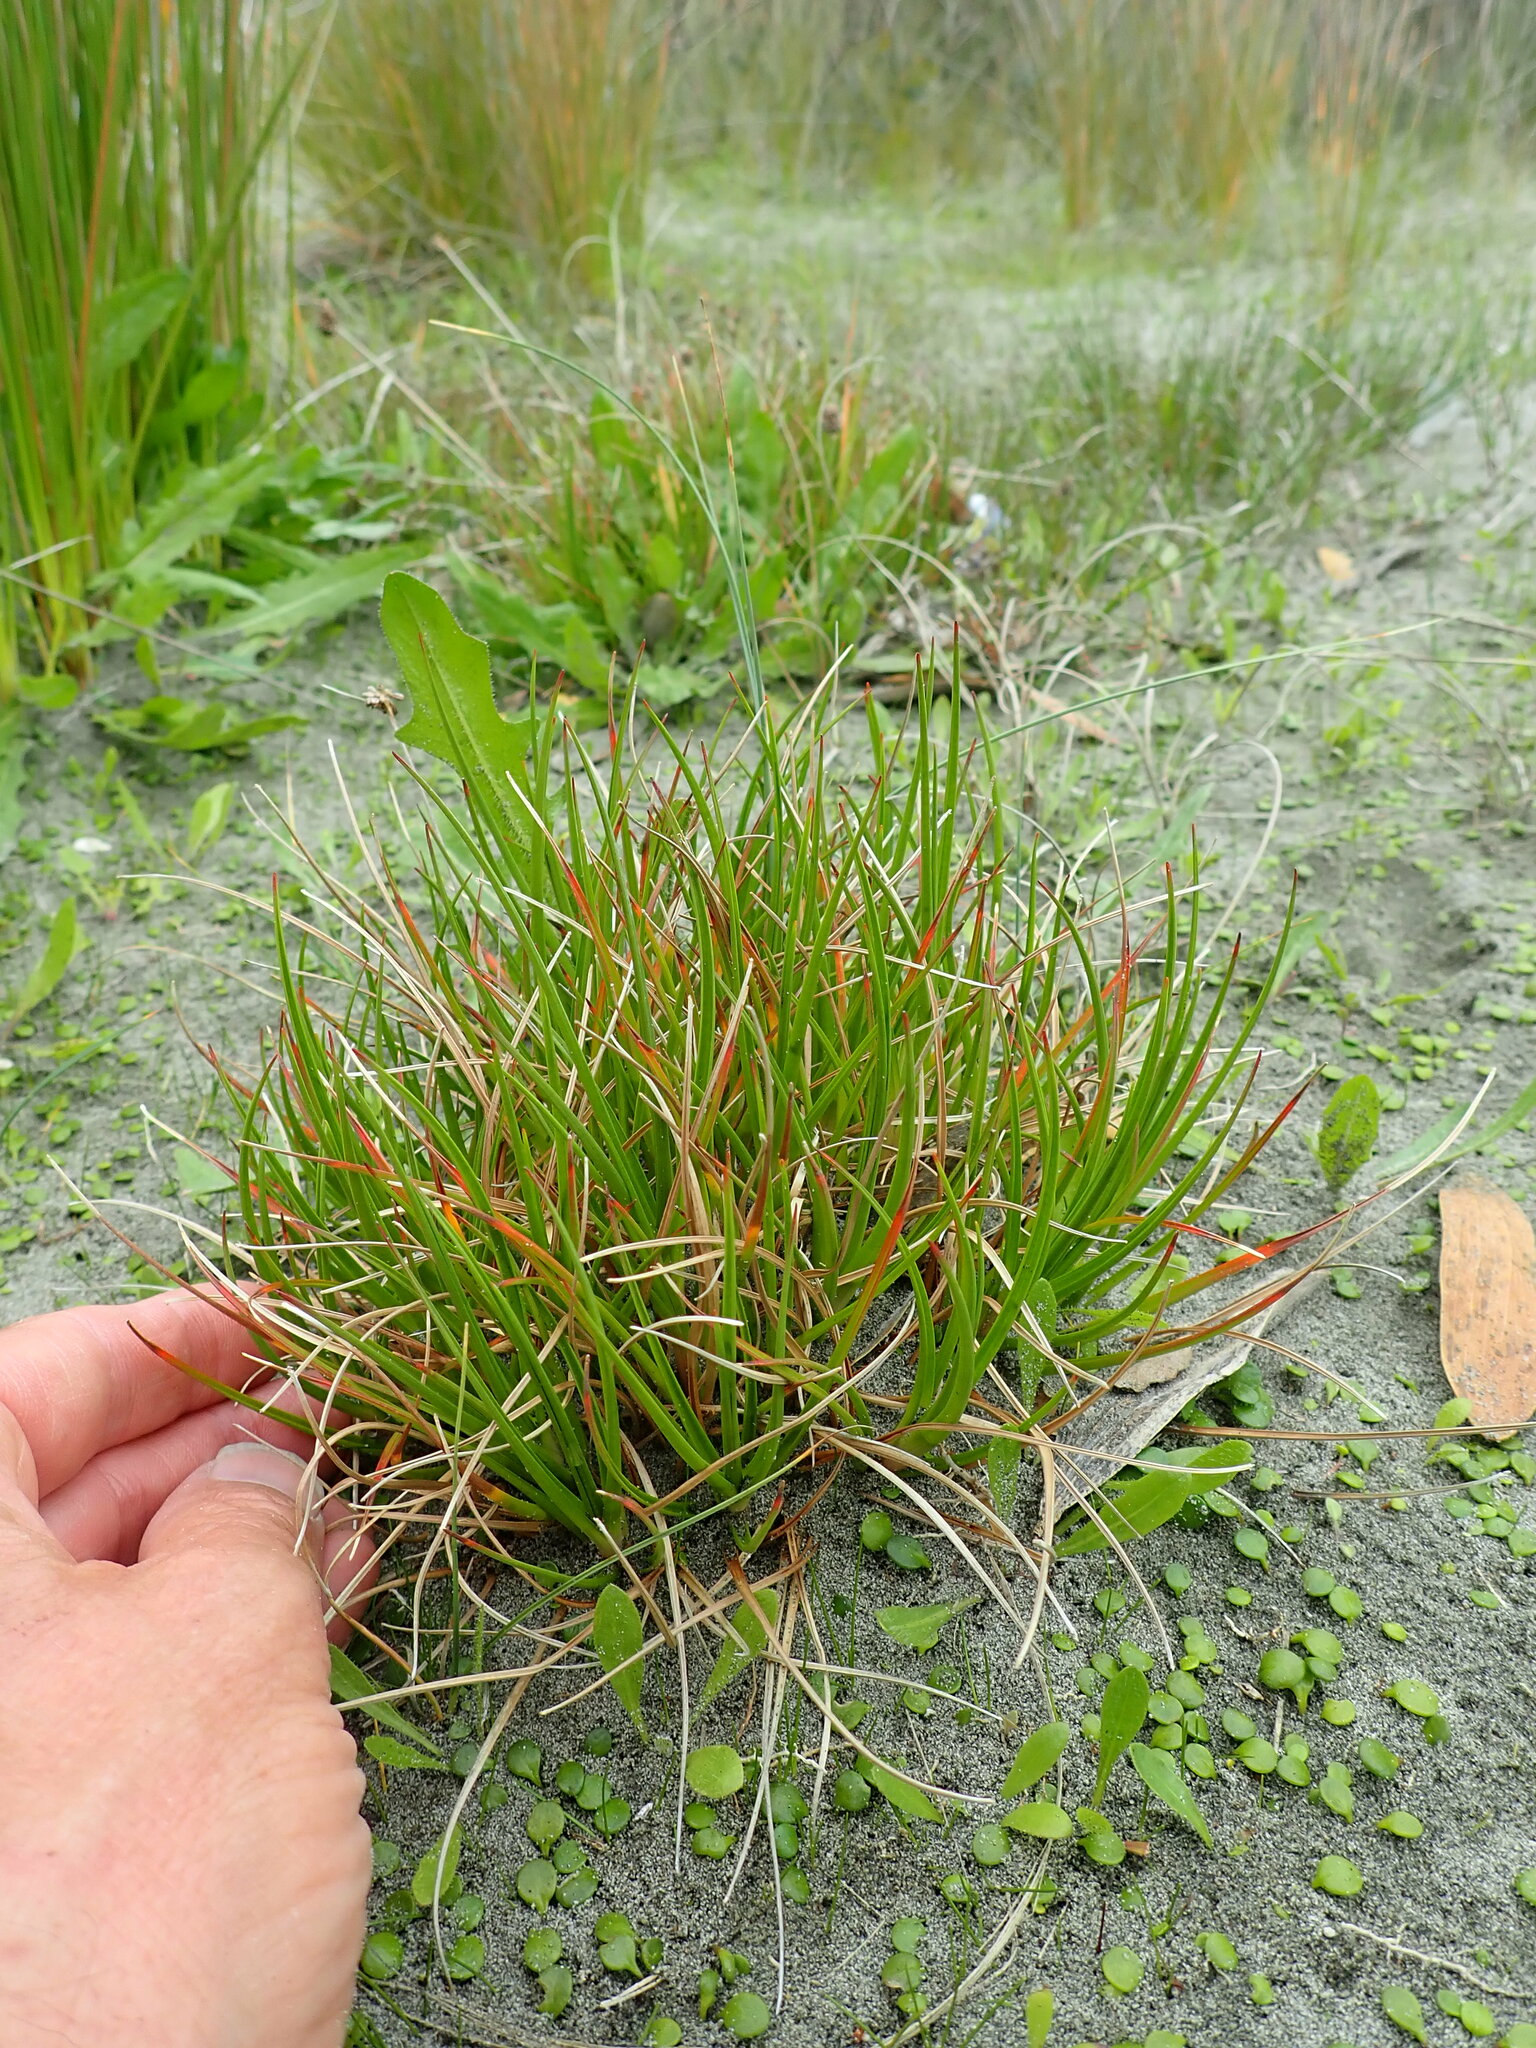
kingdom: Plantae
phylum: Tracheophyta
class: Liliopsida
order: Poales
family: Juncaceae
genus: Juncus
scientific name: Juncus caespiticius
